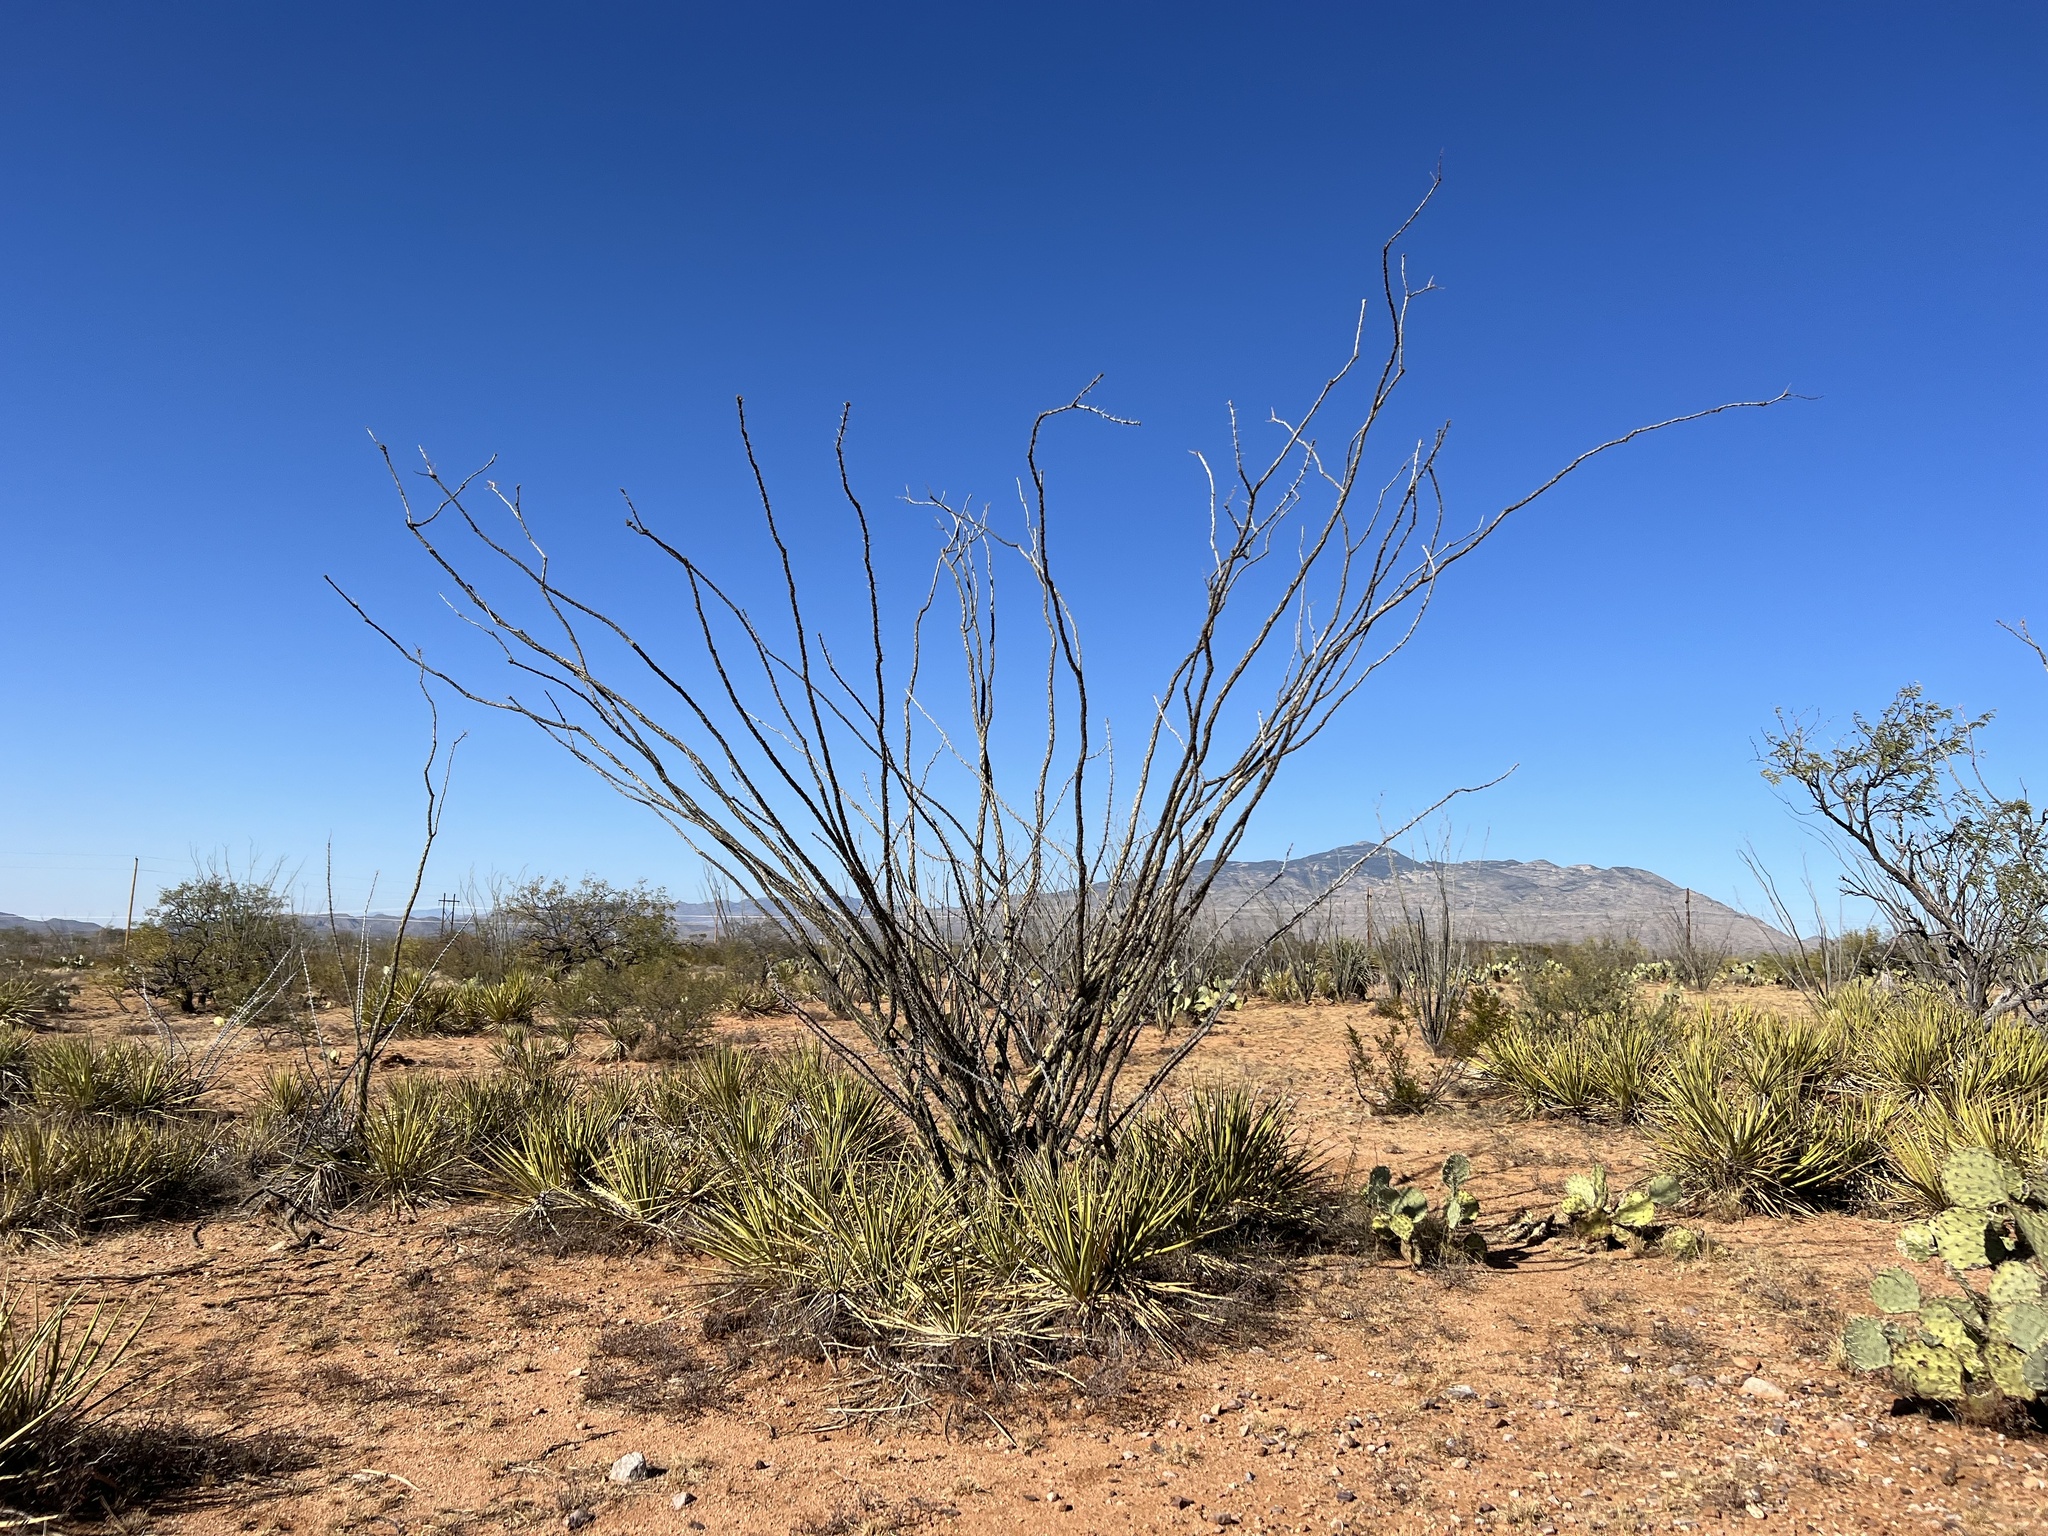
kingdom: Plantae
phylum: Tracheophyta
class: Magnoliopsida
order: Ericales
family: Fouquieriaceae
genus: Fouquieria
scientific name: Fouquieria splendens
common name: Vine-cactus
